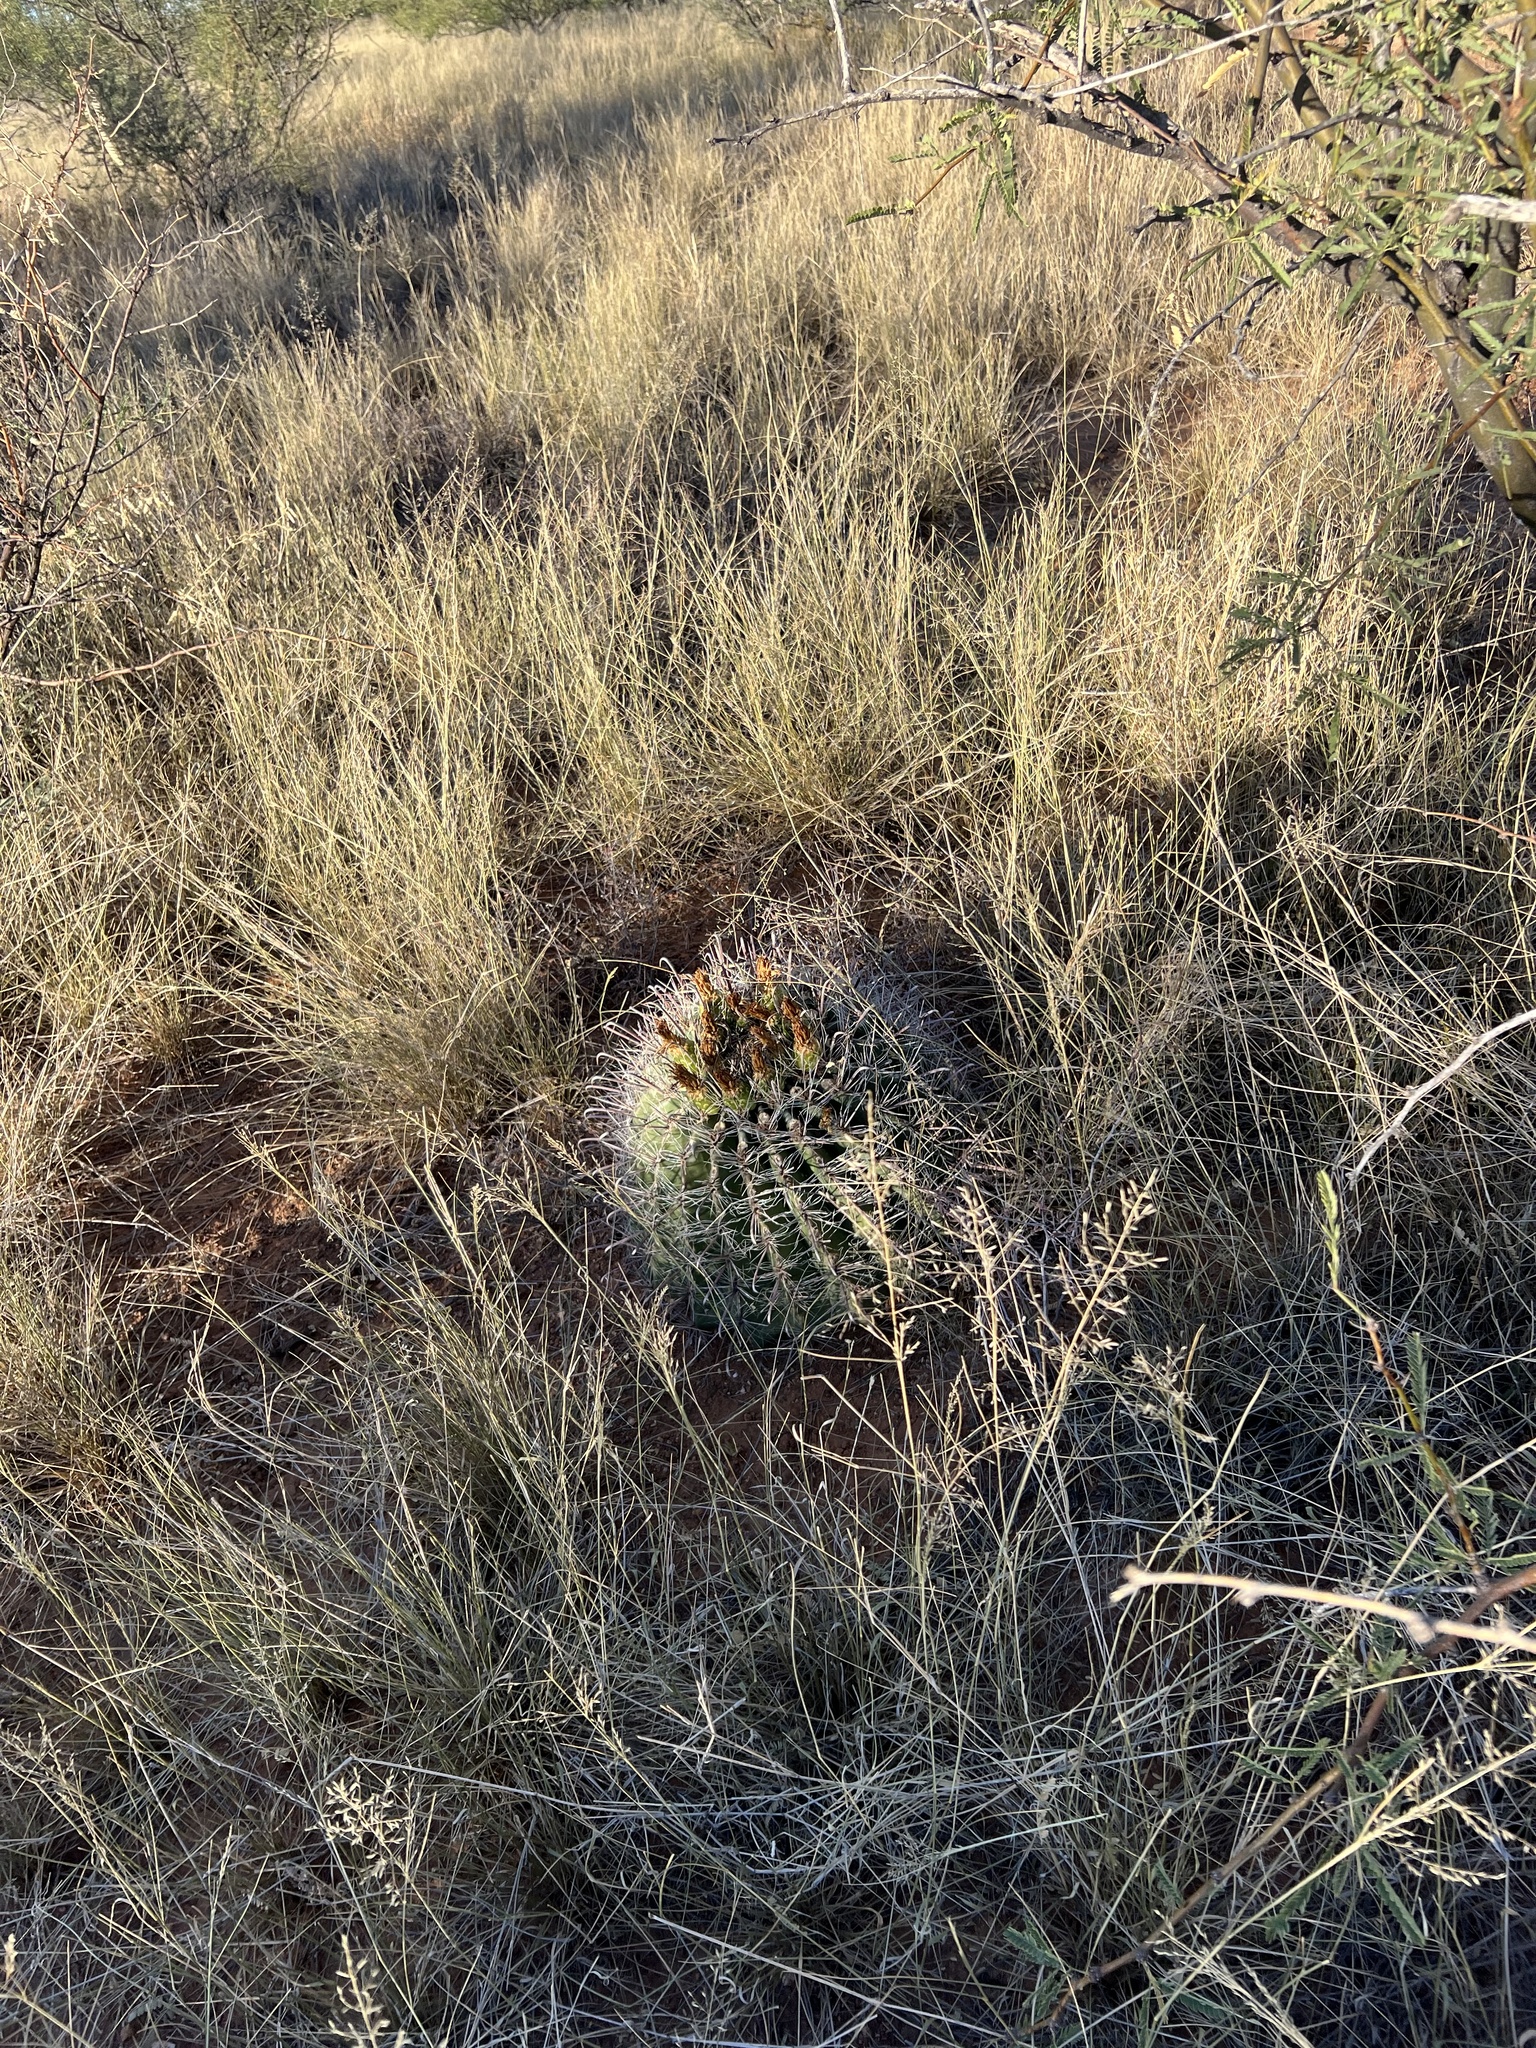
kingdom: Plantae
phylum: Tracheophyta
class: Magnoliopsida
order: Caryophyllales
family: Cactaceae
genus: Ferocactus
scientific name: Ferocactus wislizeni
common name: Candy barrel cactus
